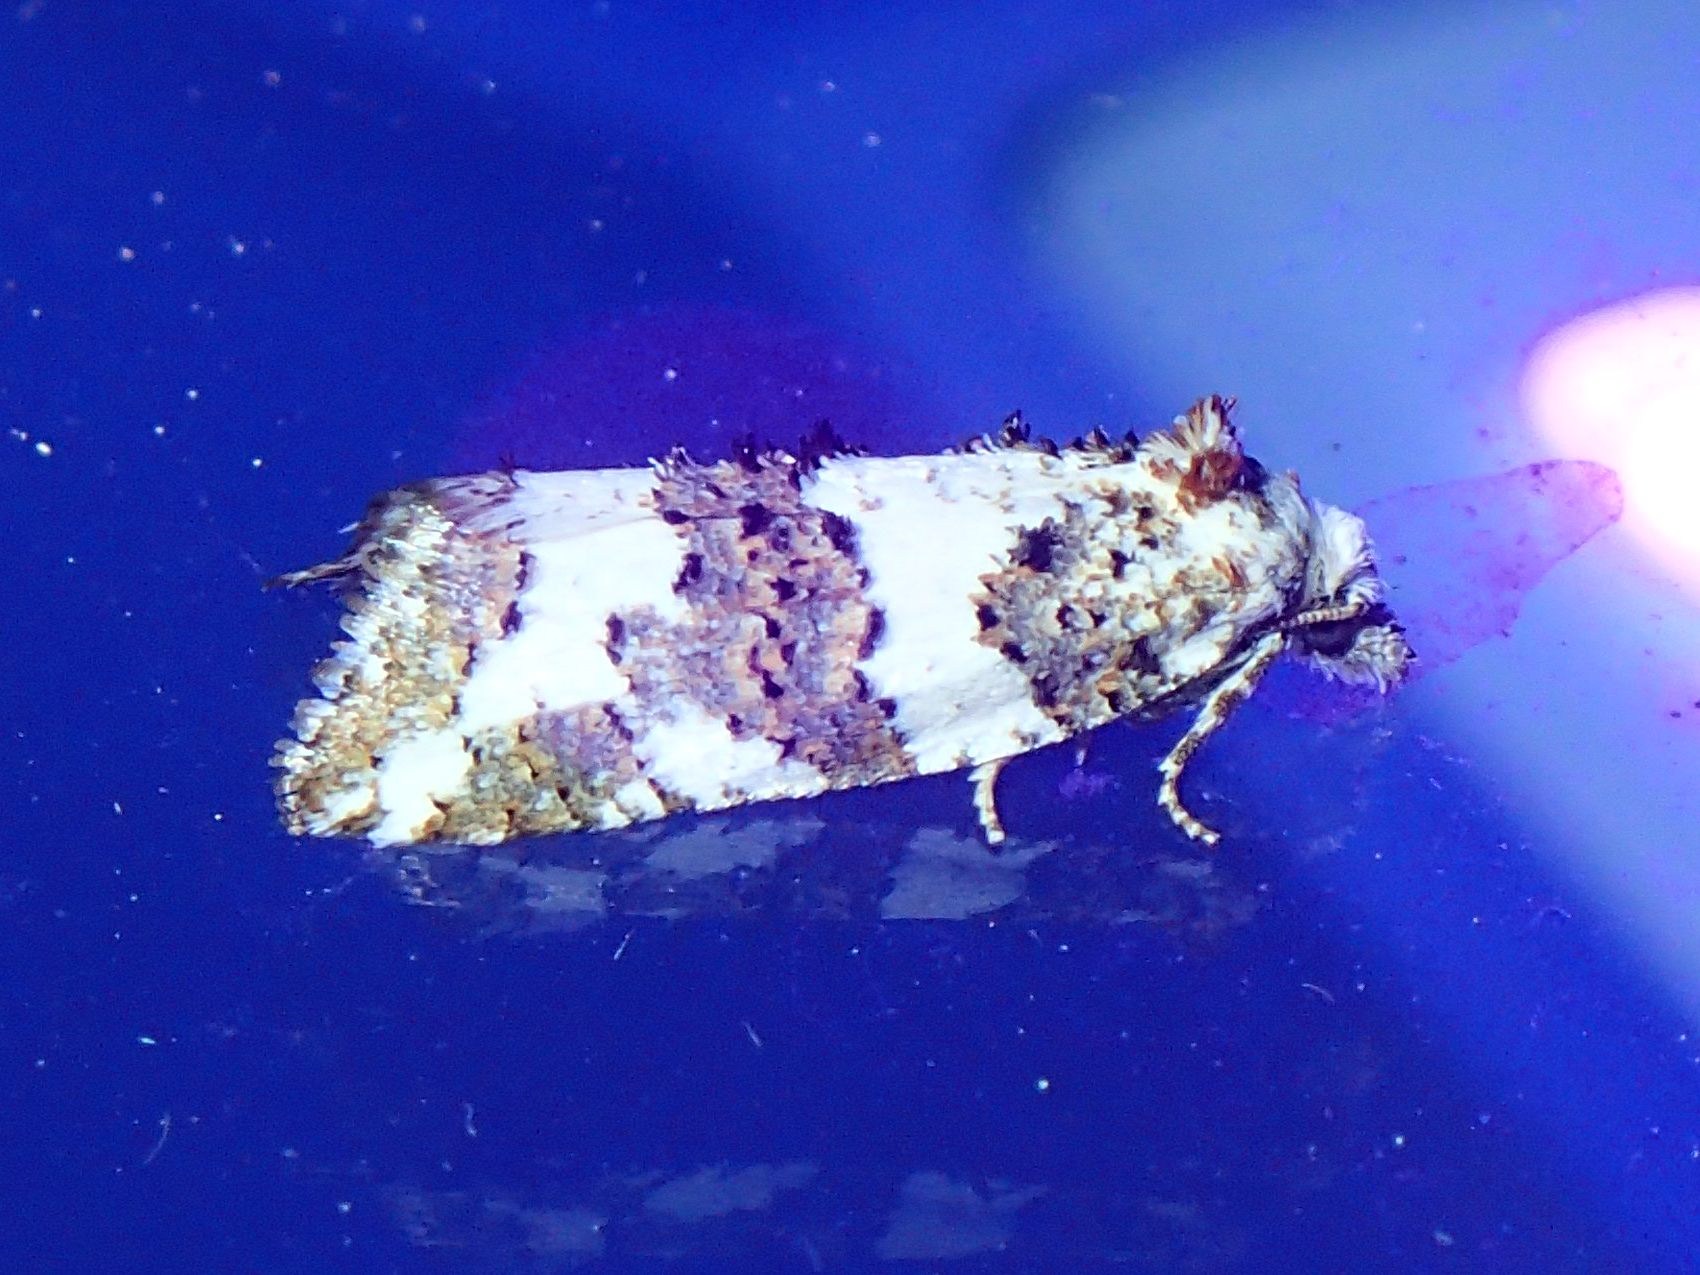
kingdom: Animalia
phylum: Arthropoda
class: Insecta
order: Lepidoptera
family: Tortricidae
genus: Xerocnephasia
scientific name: Xerocnephasia rigana
